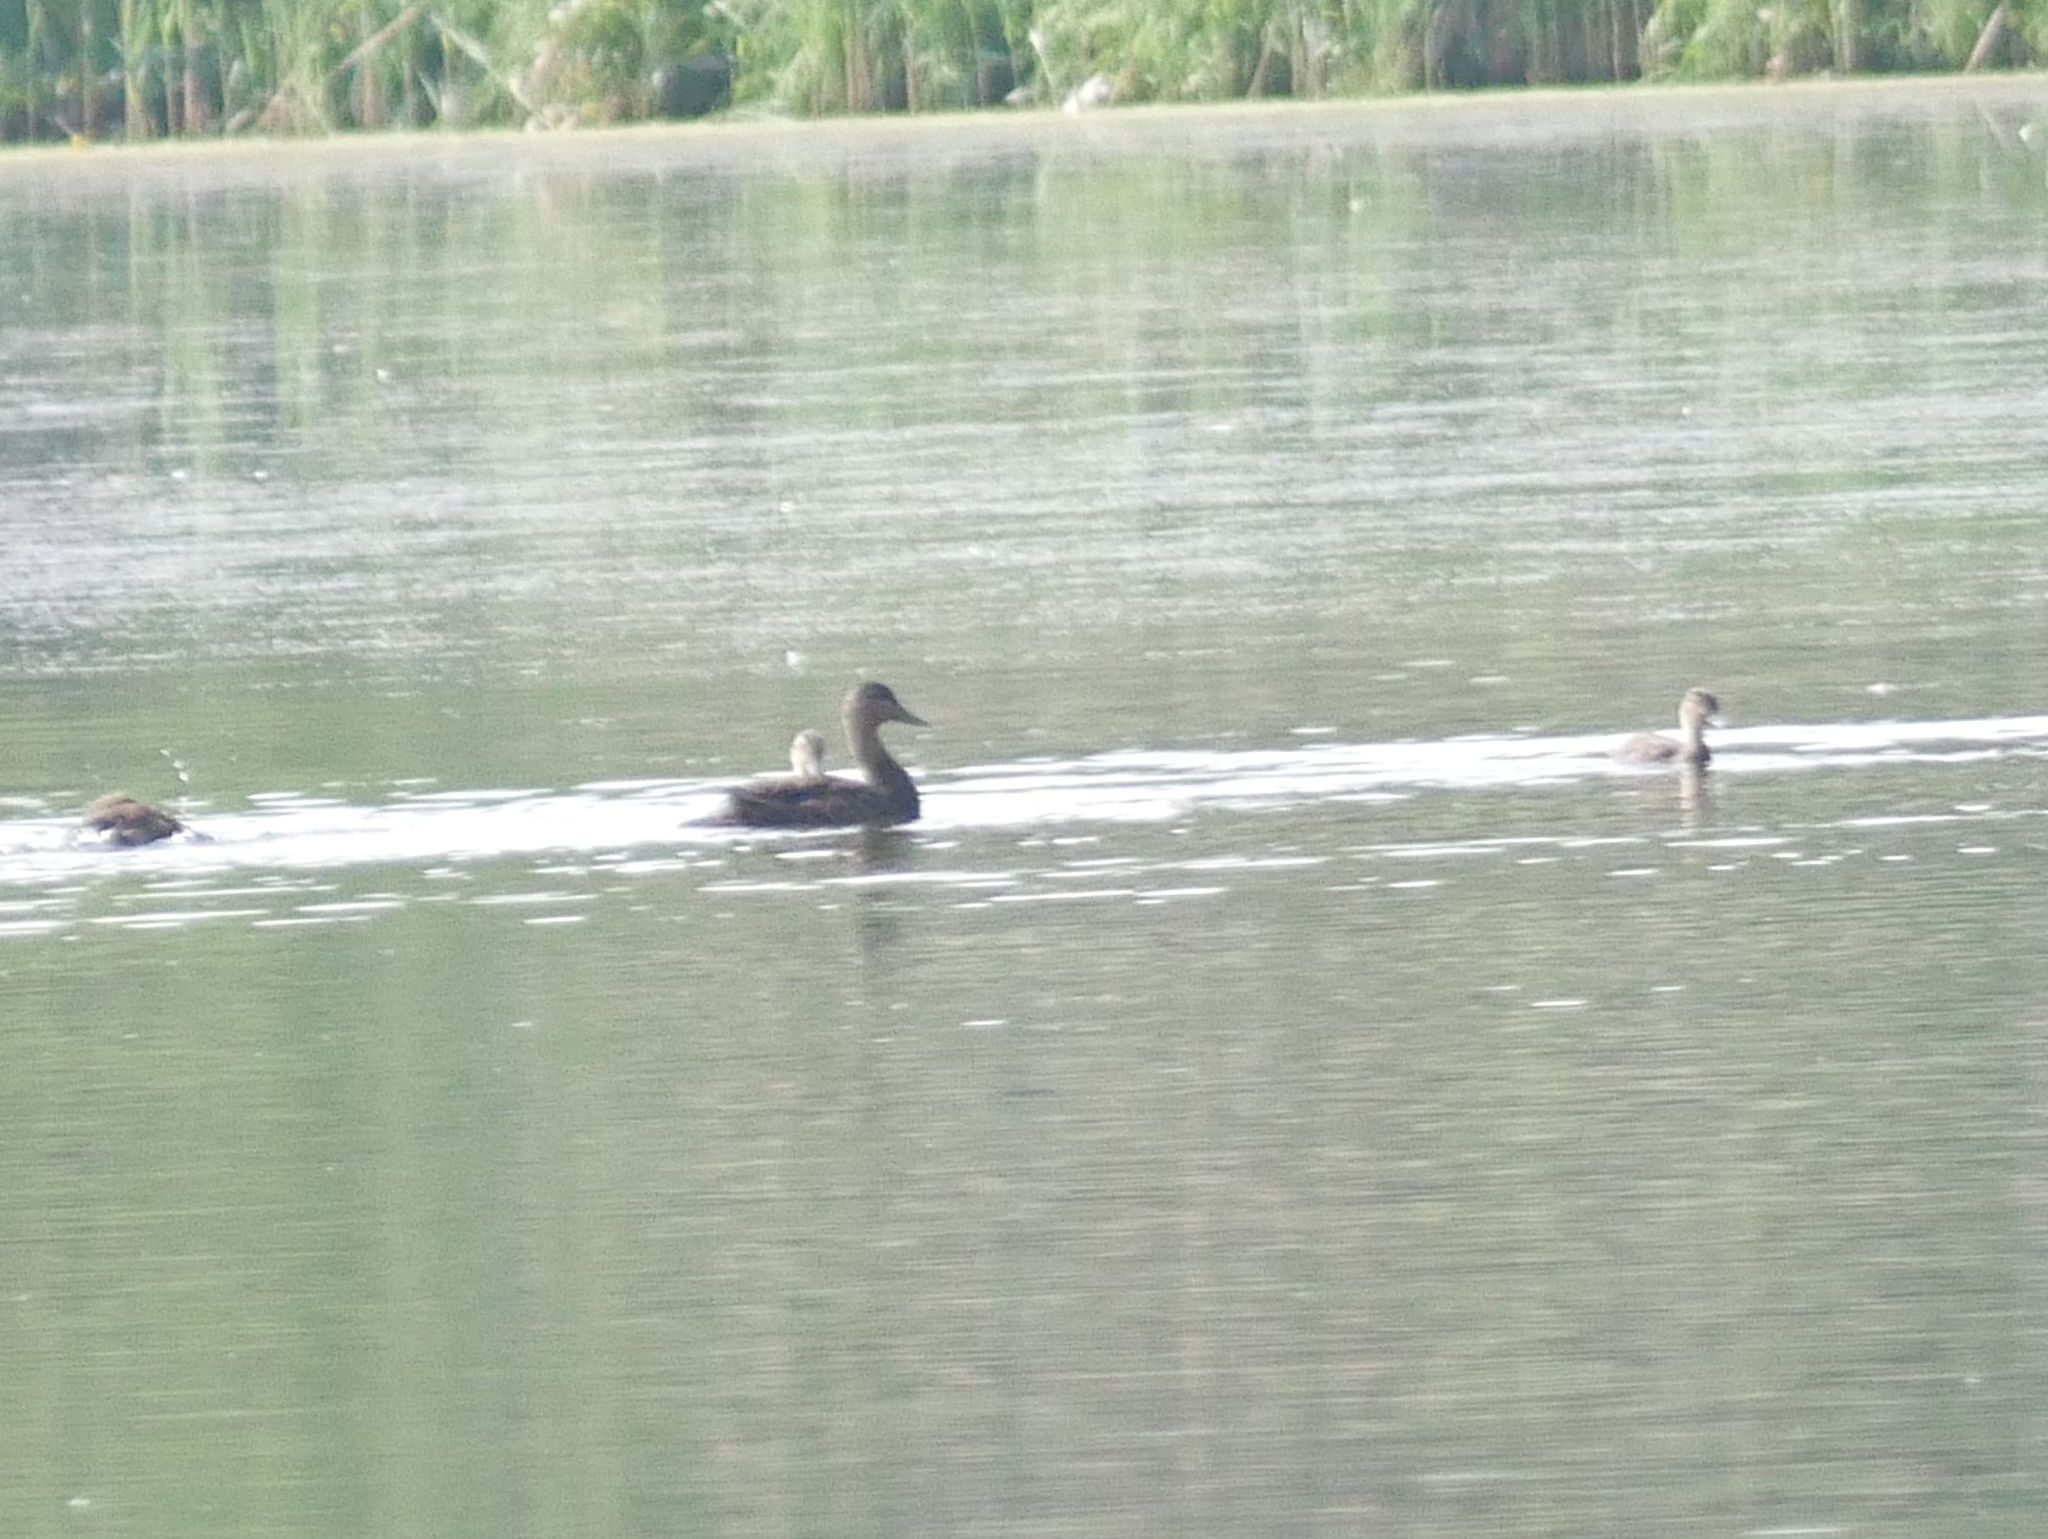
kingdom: Animalia
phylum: Chordata
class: Aves
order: Anseriformes
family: Anatidae
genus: Anas
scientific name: Anas rubripes
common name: American black duck
